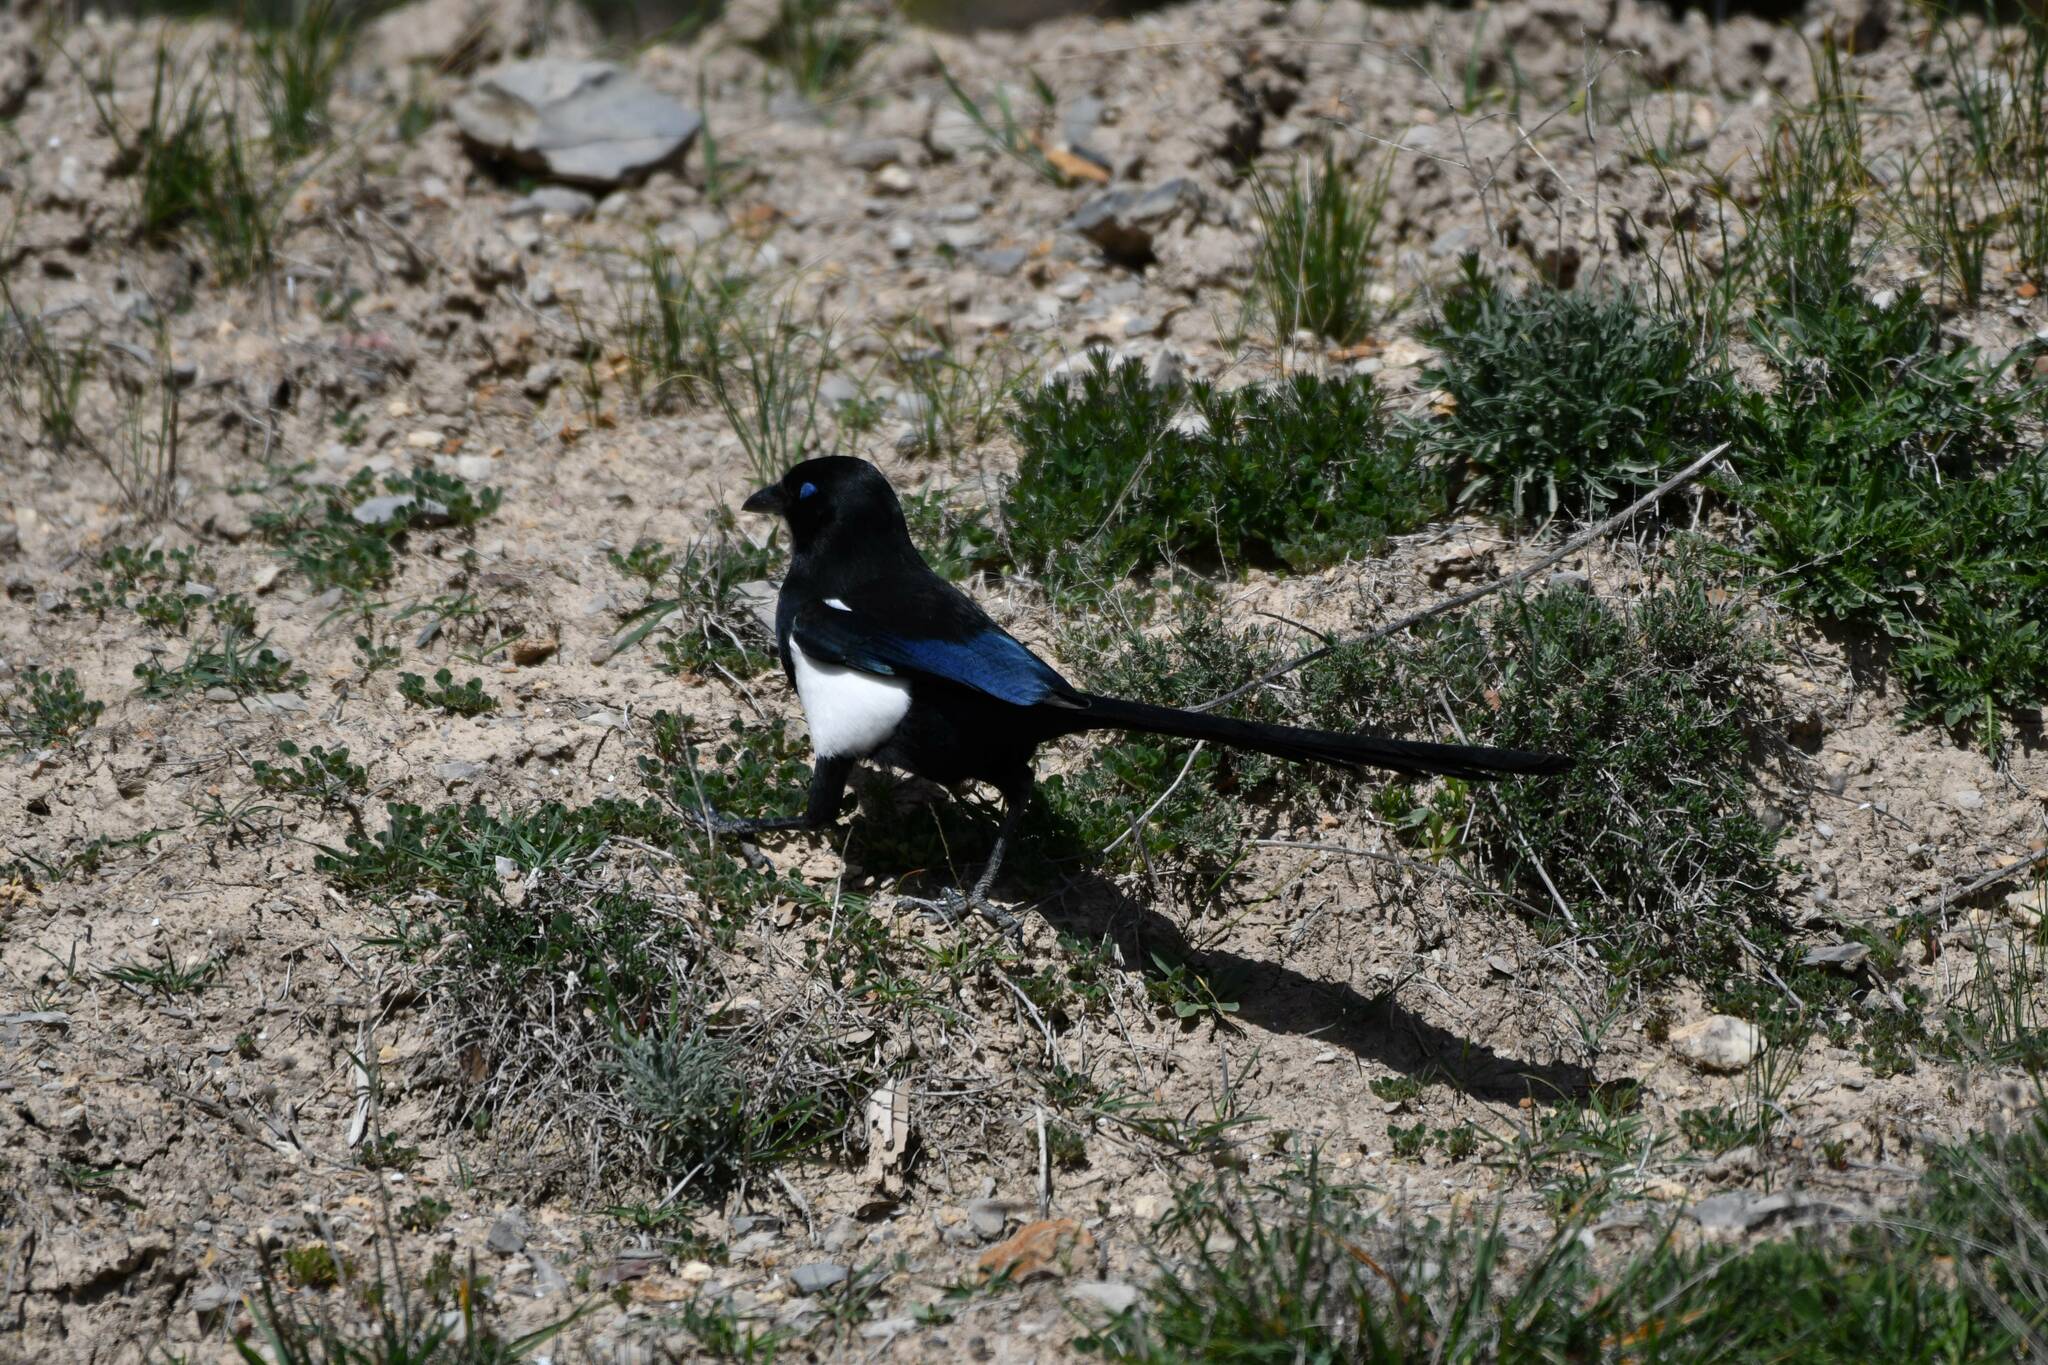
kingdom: Animalia
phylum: Chordata
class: Aves
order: Passeriformes
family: Corvidae
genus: Pica
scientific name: Pica mauritanica
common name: Maghreb magpie
